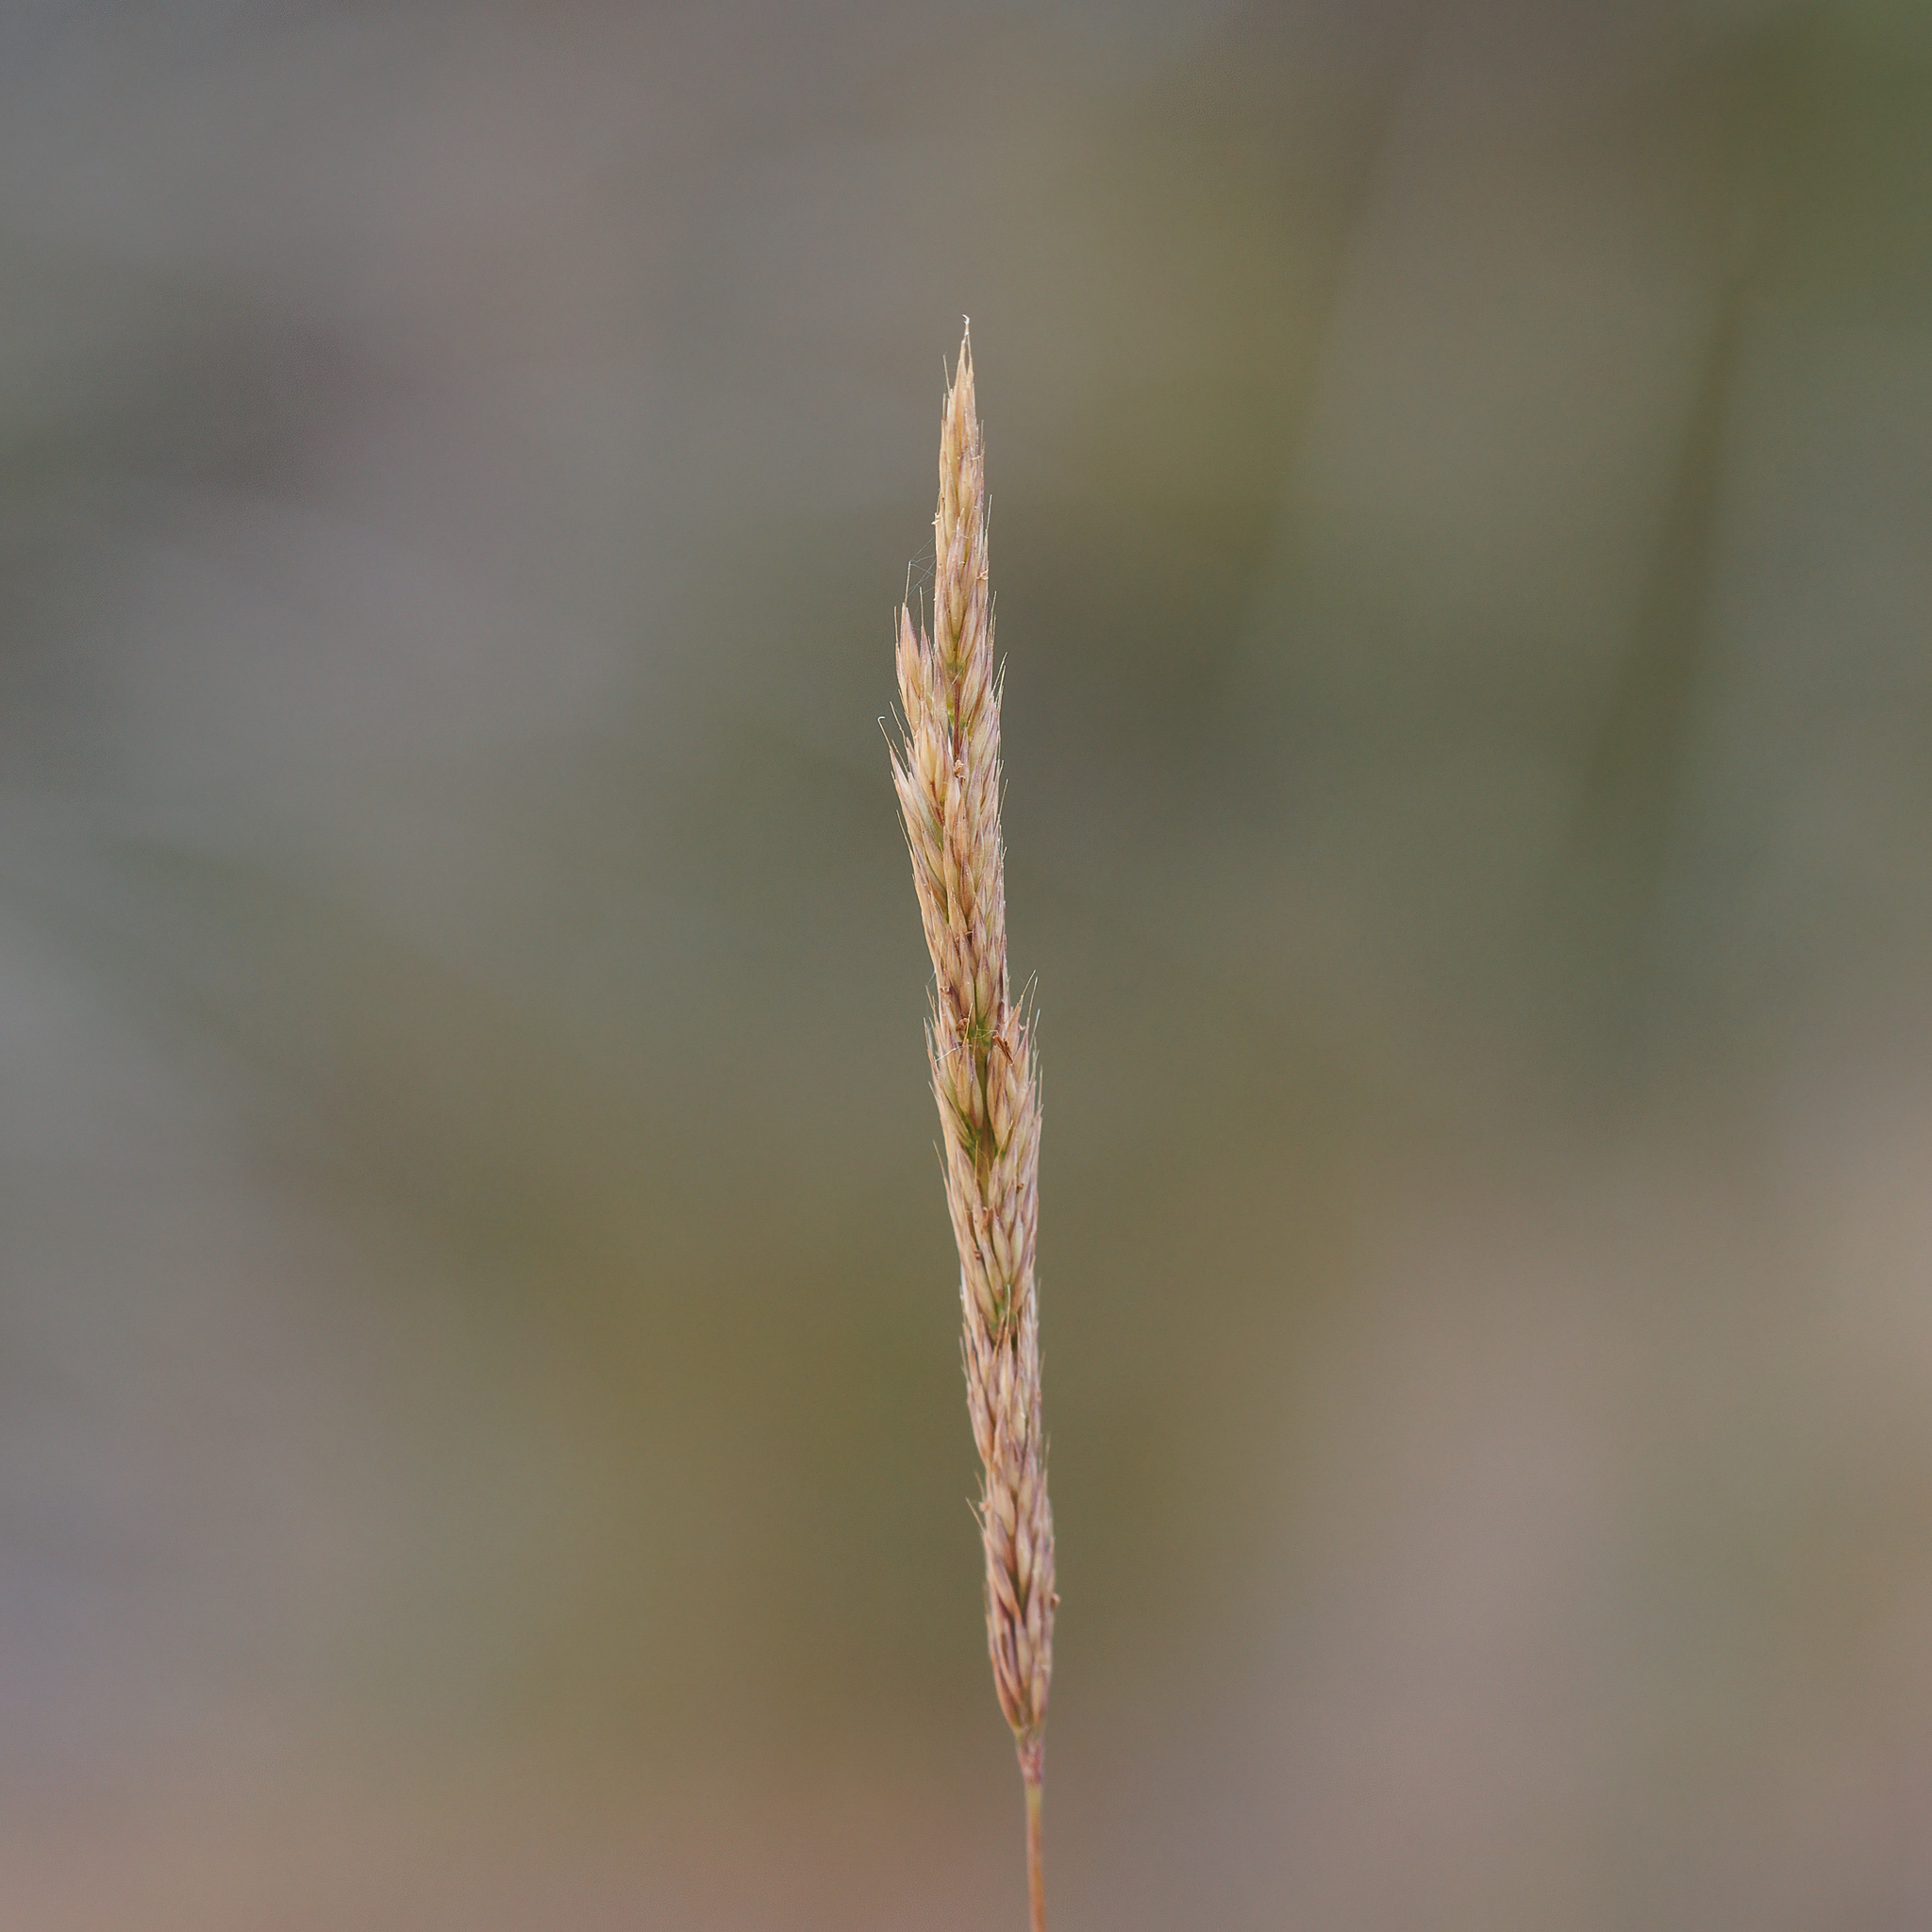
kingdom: Plantae
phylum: Tracheophyta
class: Liliopsida
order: Poales
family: Poaceae
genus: Calamagrostis
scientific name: Calamagrostis quadriseta
